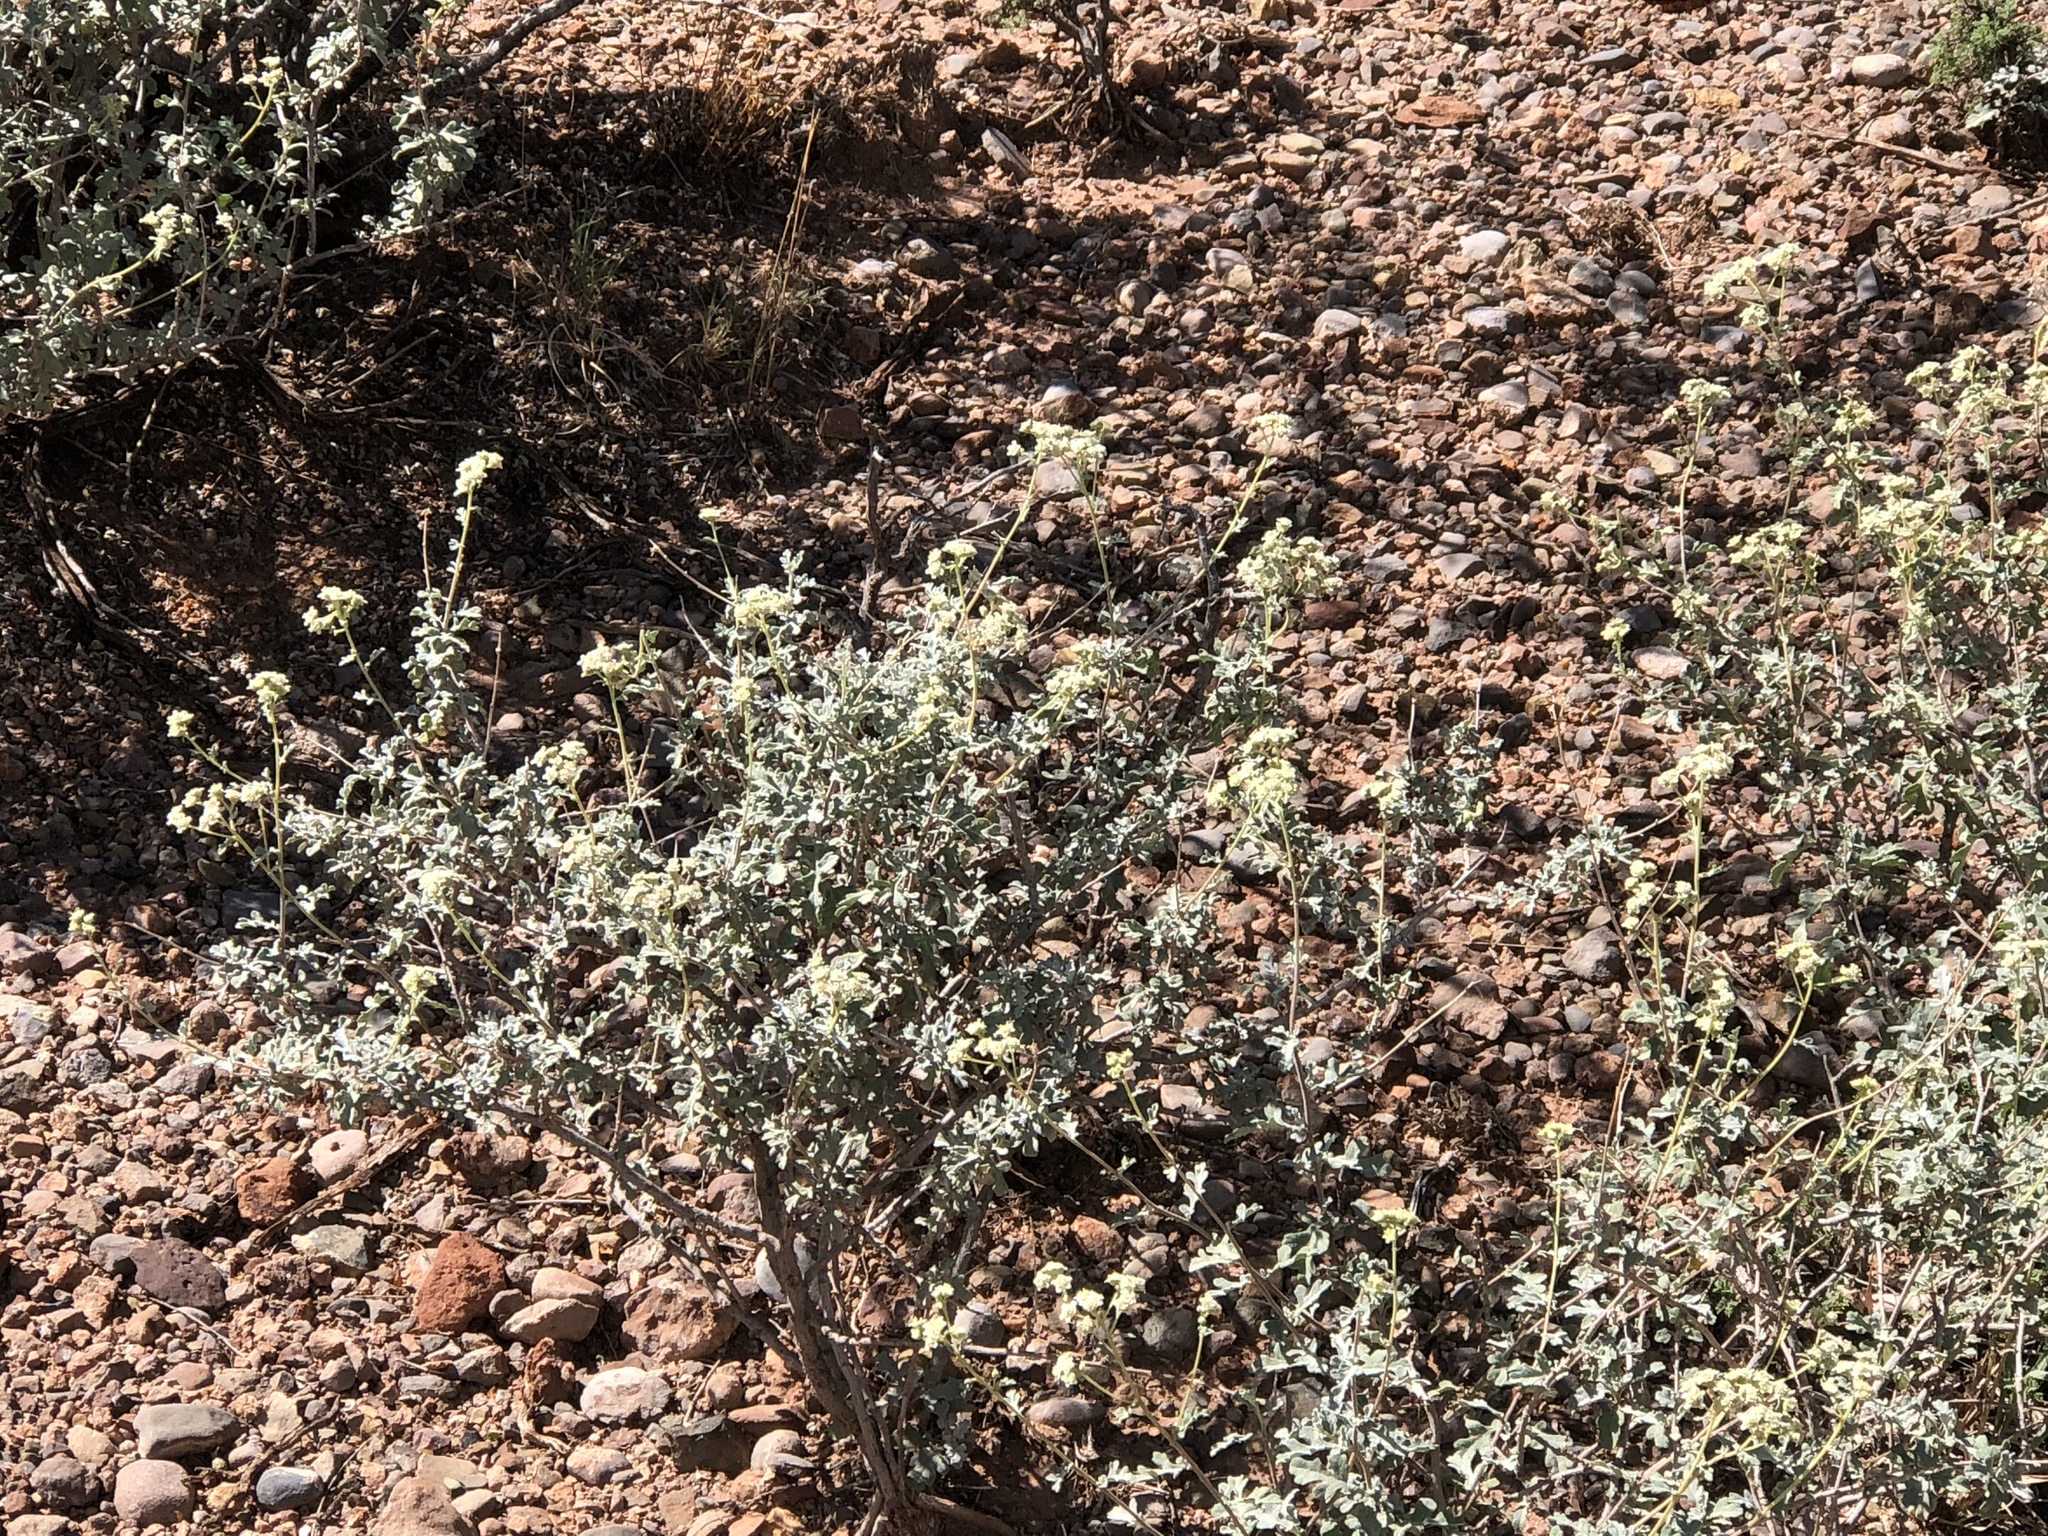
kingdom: Plantae
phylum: Tracheophyta
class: Magnoliopsida
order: Asterales
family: Asteraceae
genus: Parthenium
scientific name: Parthenium incanum
